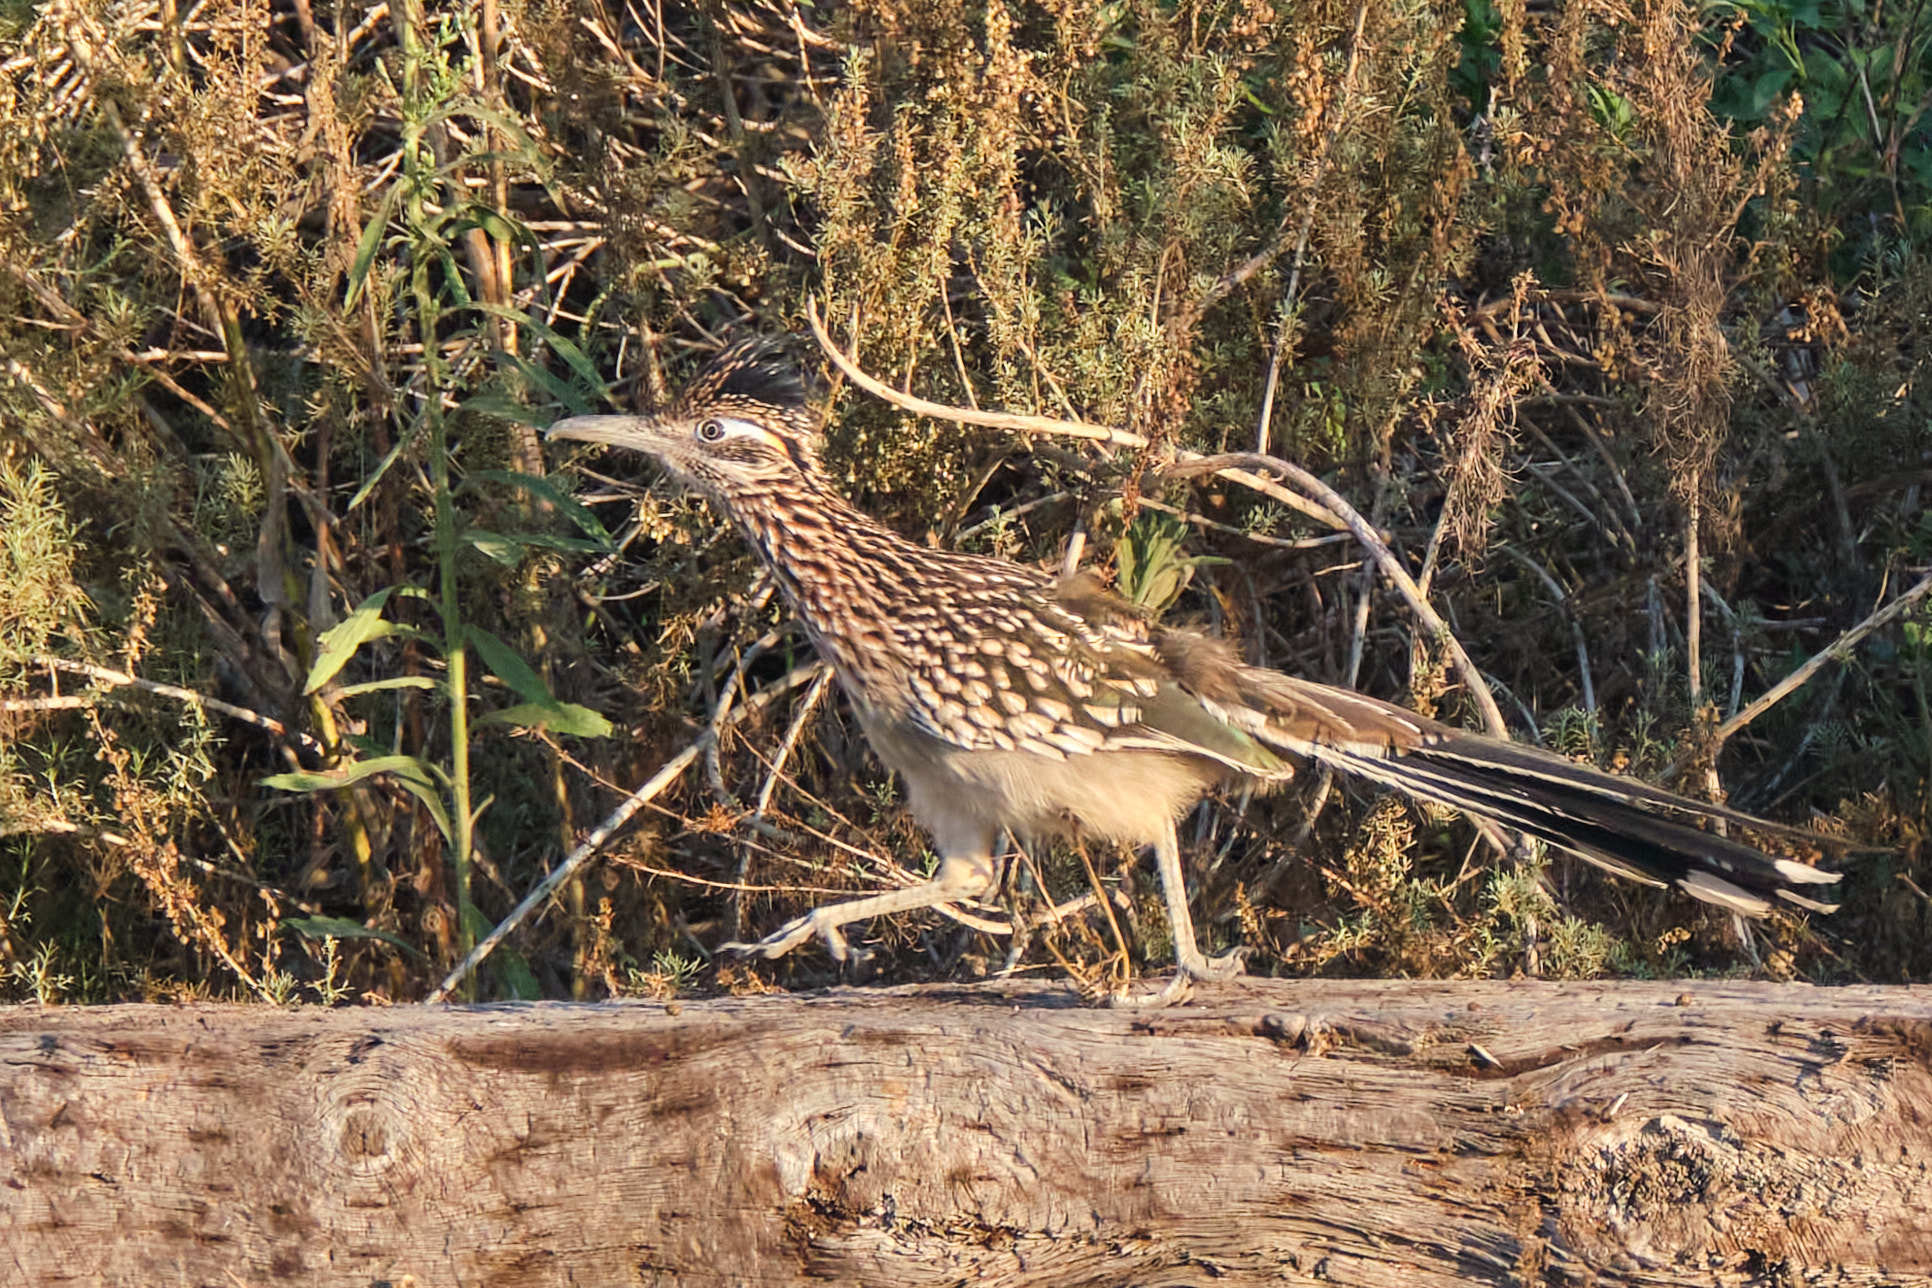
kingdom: Animalia
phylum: Chordata
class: Aves
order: Cuculiformes
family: Cuculidae
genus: Geococcyx
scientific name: Geococcyx californianus
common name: Greater roadrunner
